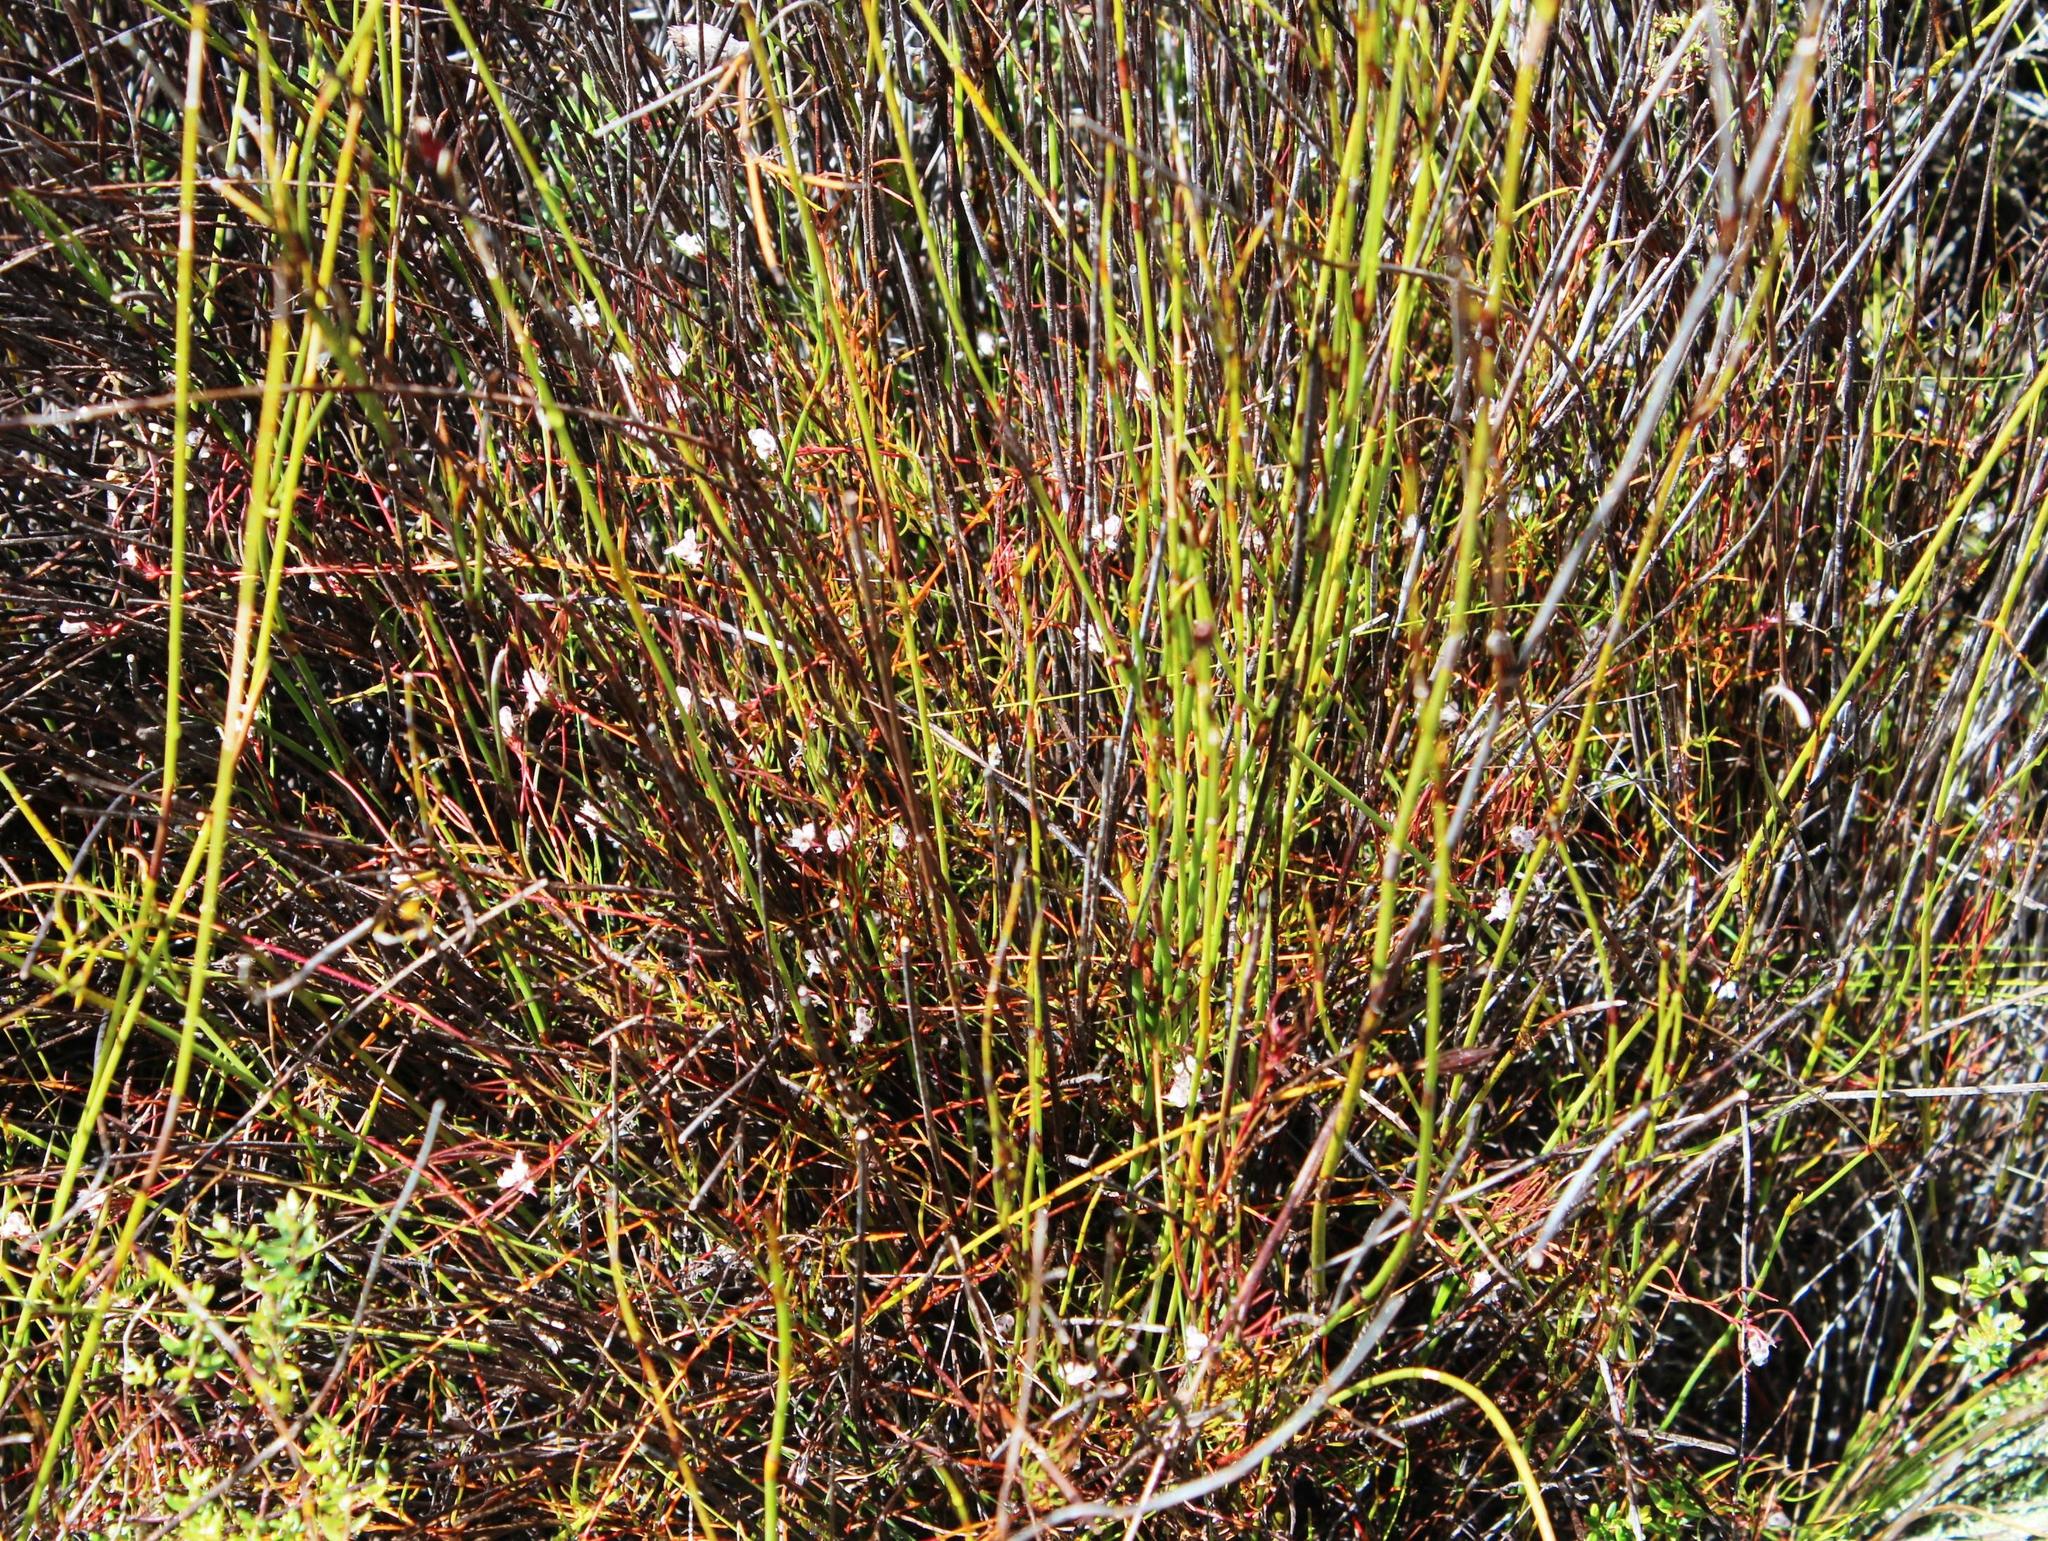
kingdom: Plantae
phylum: Tracheophyta
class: Magnoliopsida
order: Proteales
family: Proteaceae
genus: Serruria
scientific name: Serruria rebeloi
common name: Clandestine spiderhead
